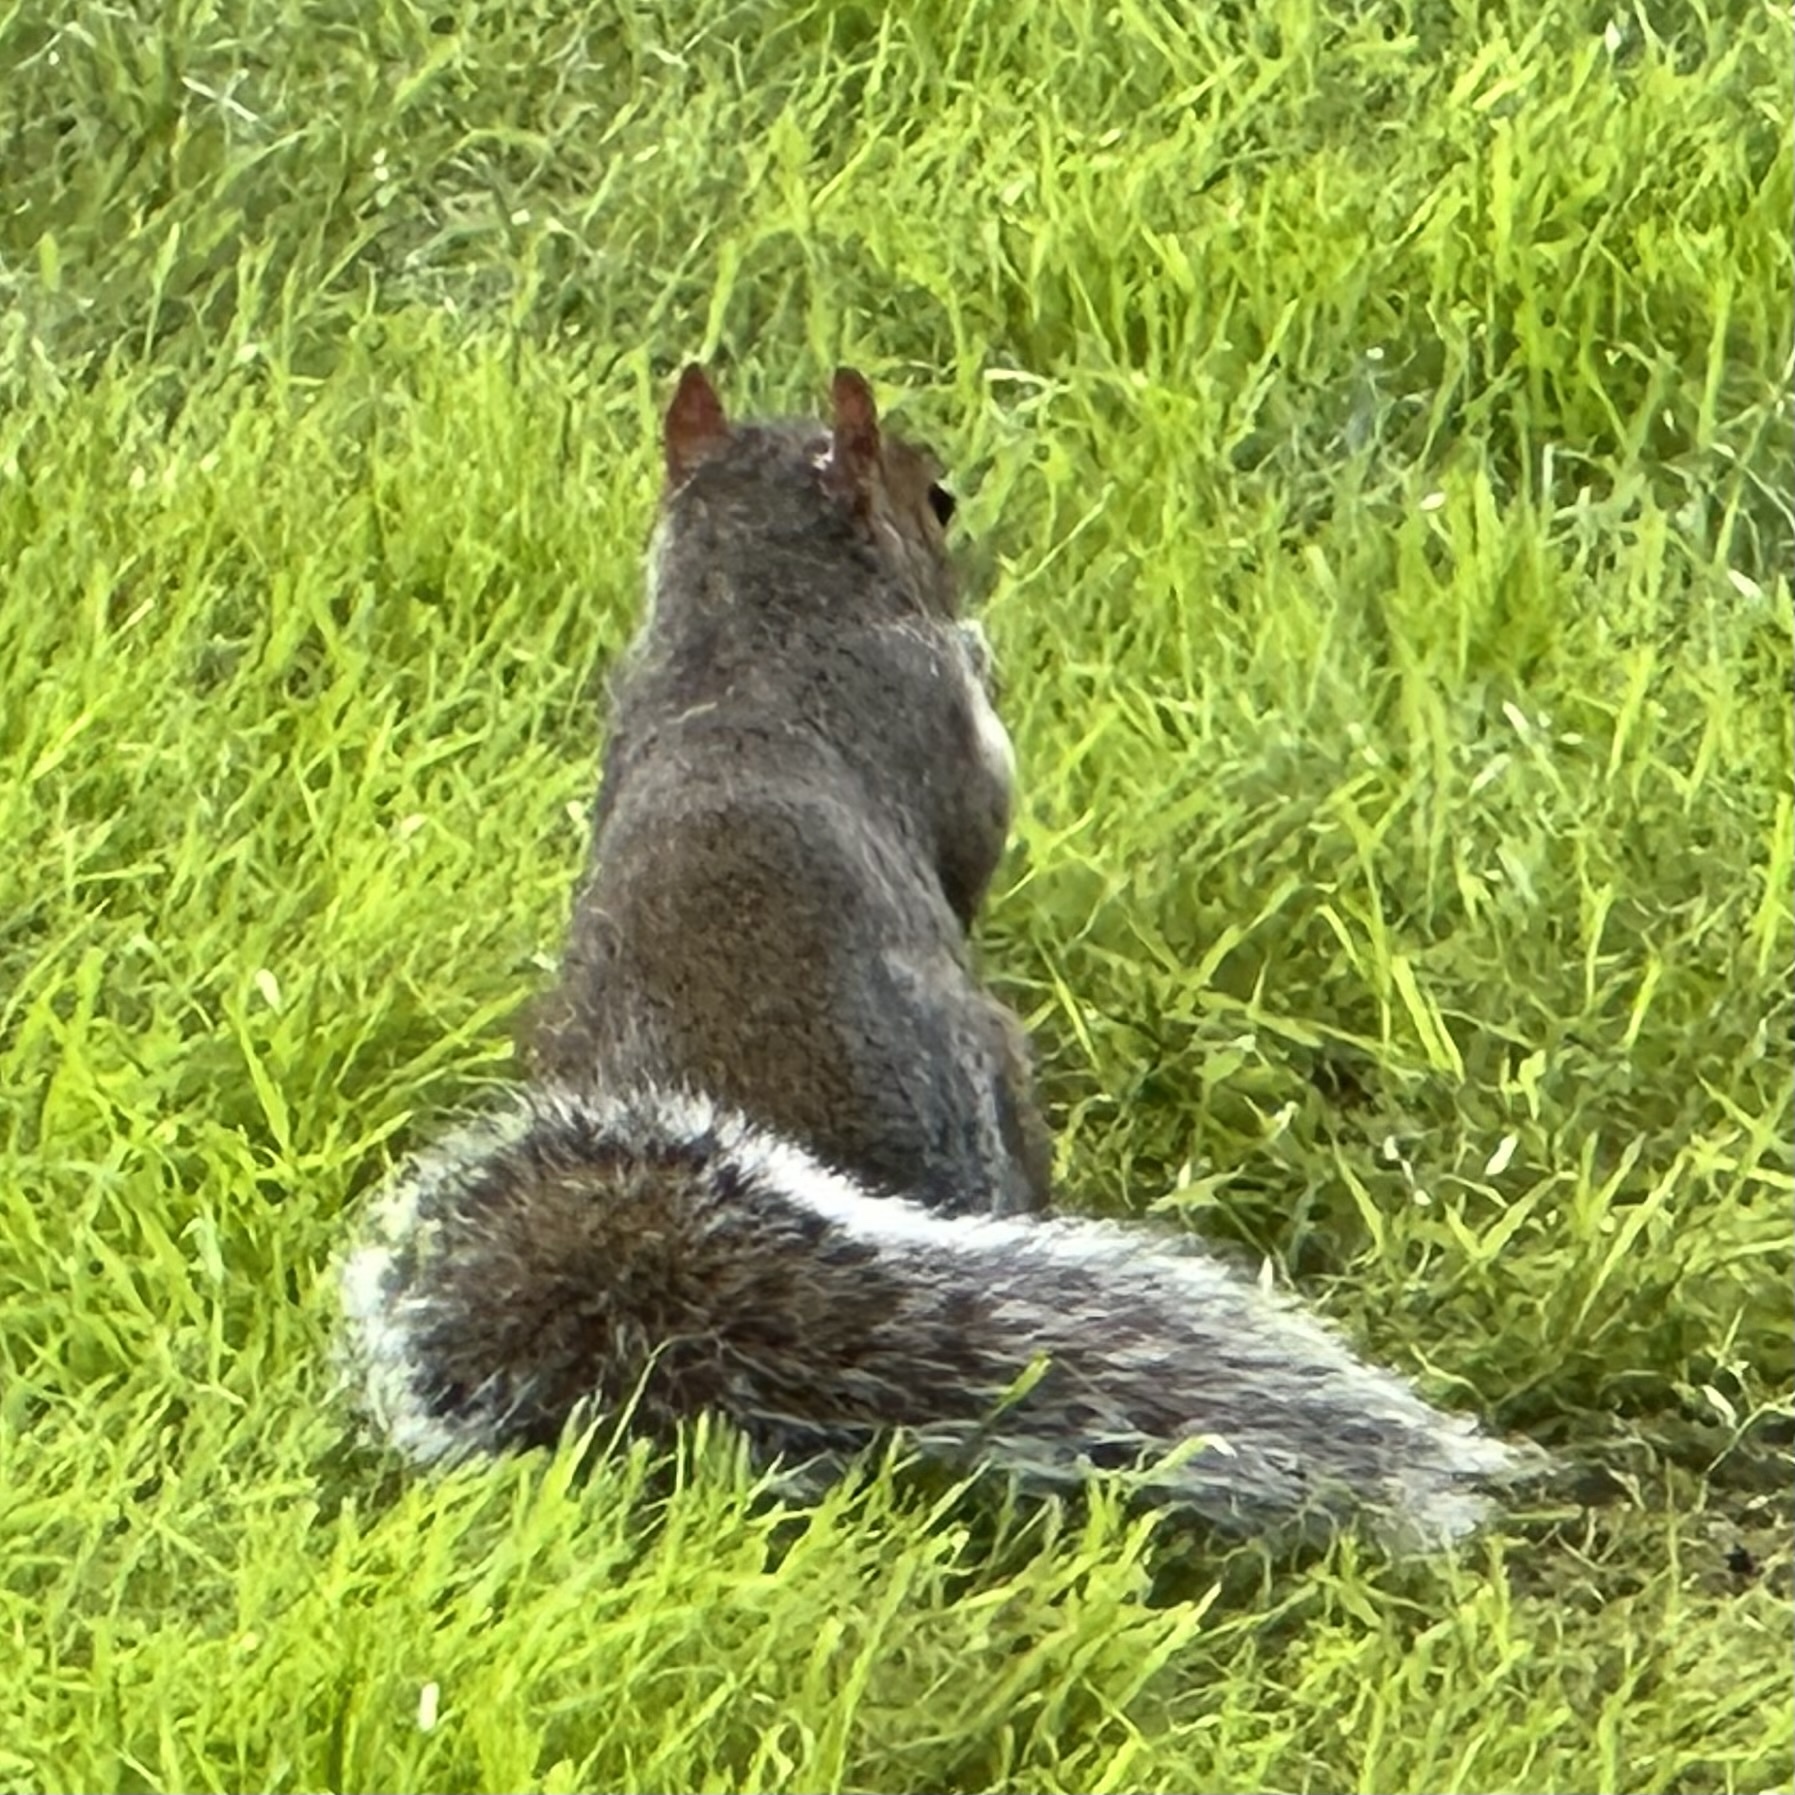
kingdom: Animalia
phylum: Chordata
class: Mammalia
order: Rodentia
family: Sciuridae
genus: Sciurus
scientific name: Sciurus carolinensis
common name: Eastern gray squirrel
